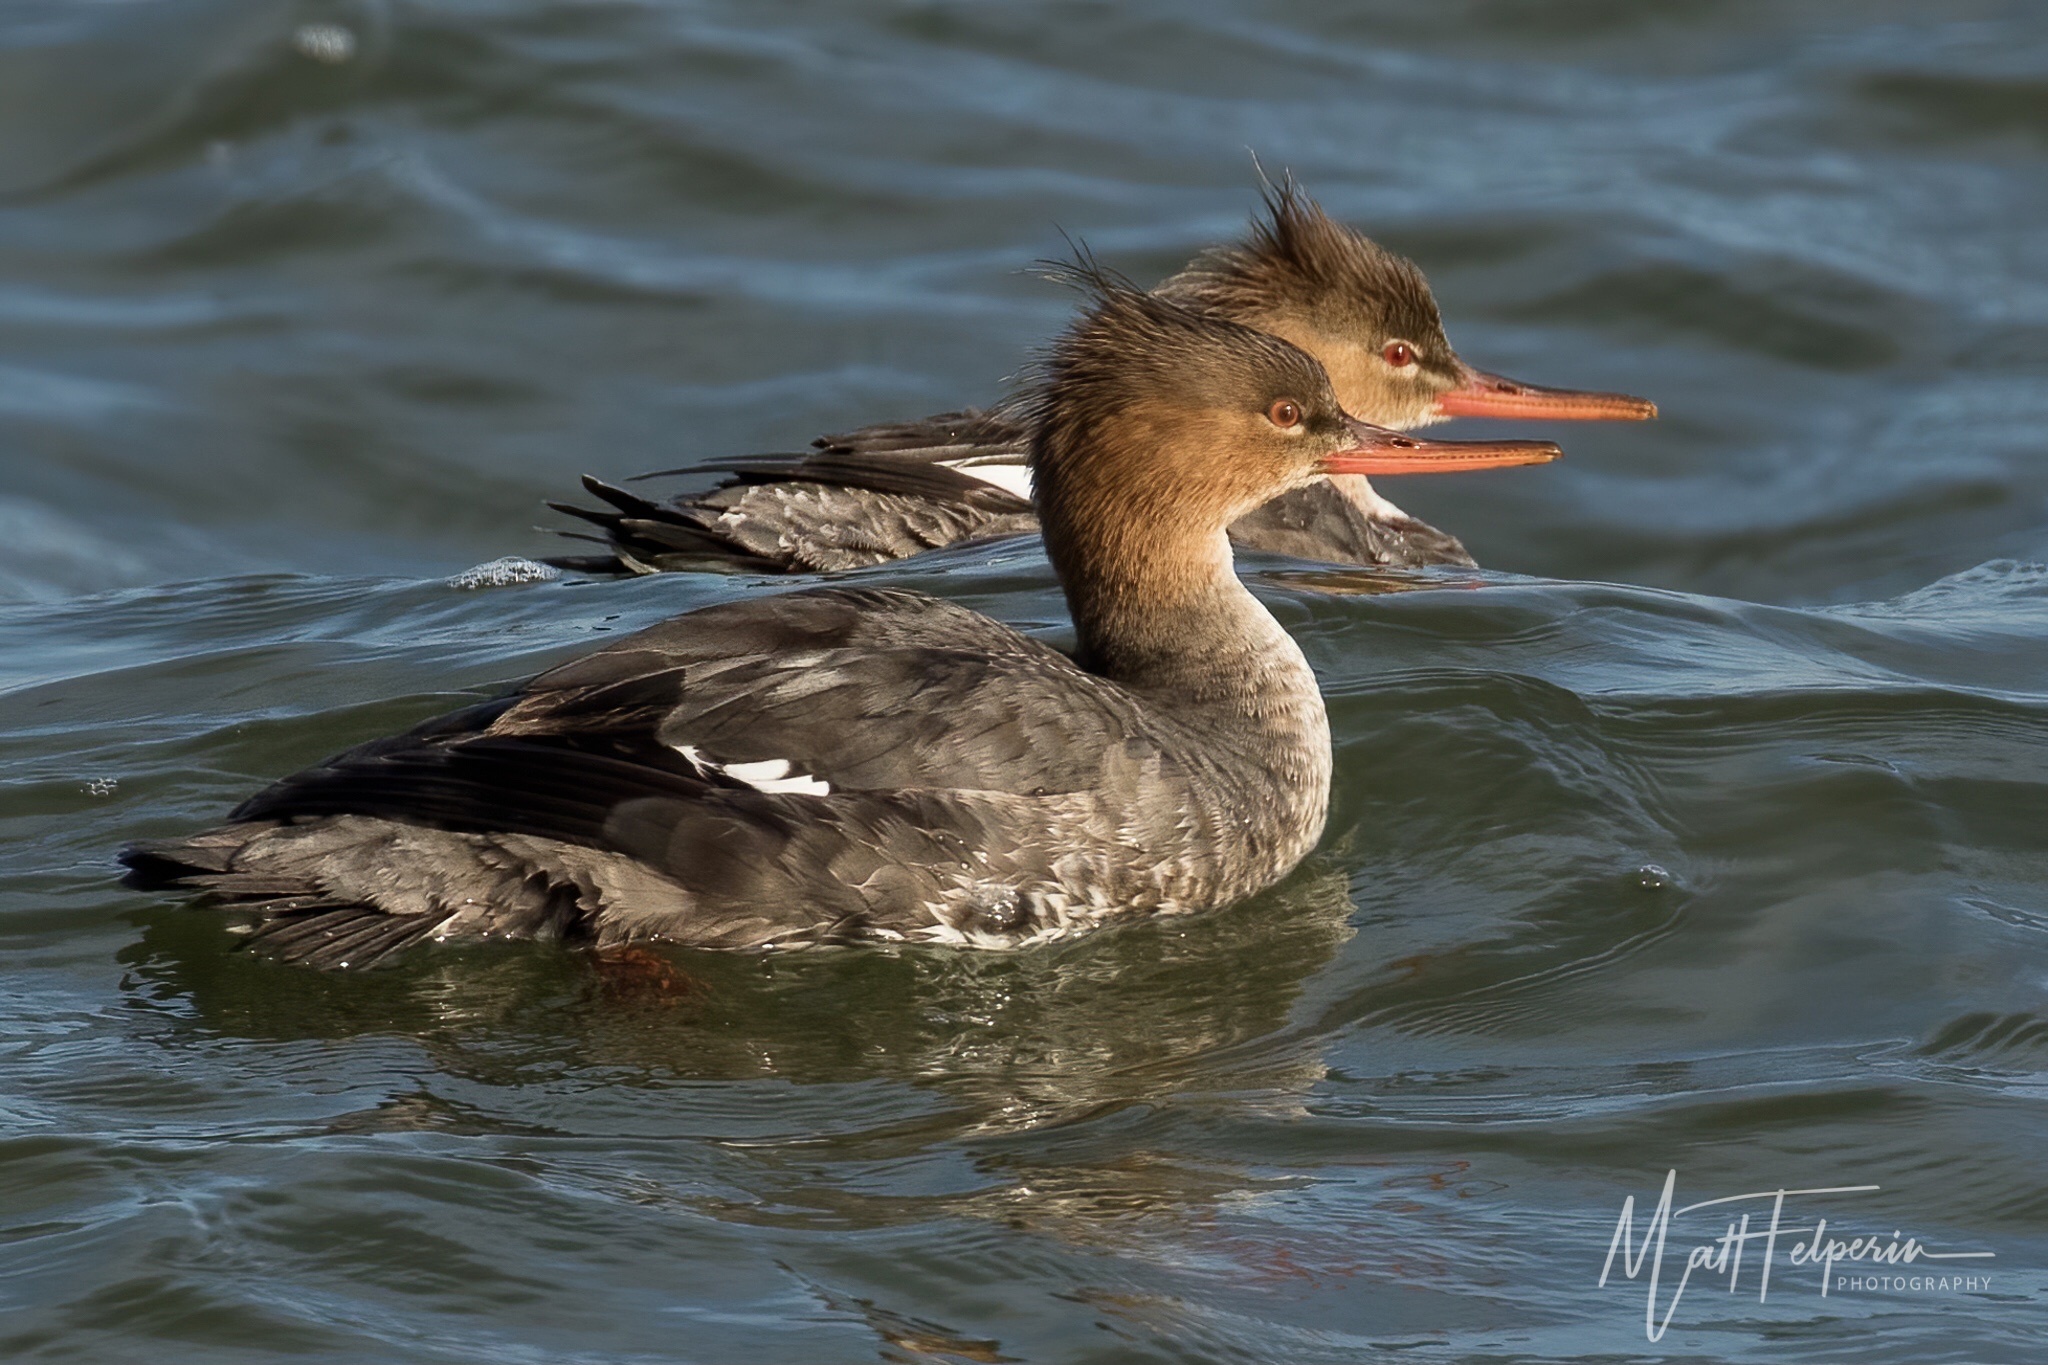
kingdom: Animalia
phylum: Chordata
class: Aves
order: Anseriformes
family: Anatidae
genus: Mergus
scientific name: Mergus serrator
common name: Red-breasted merganser
